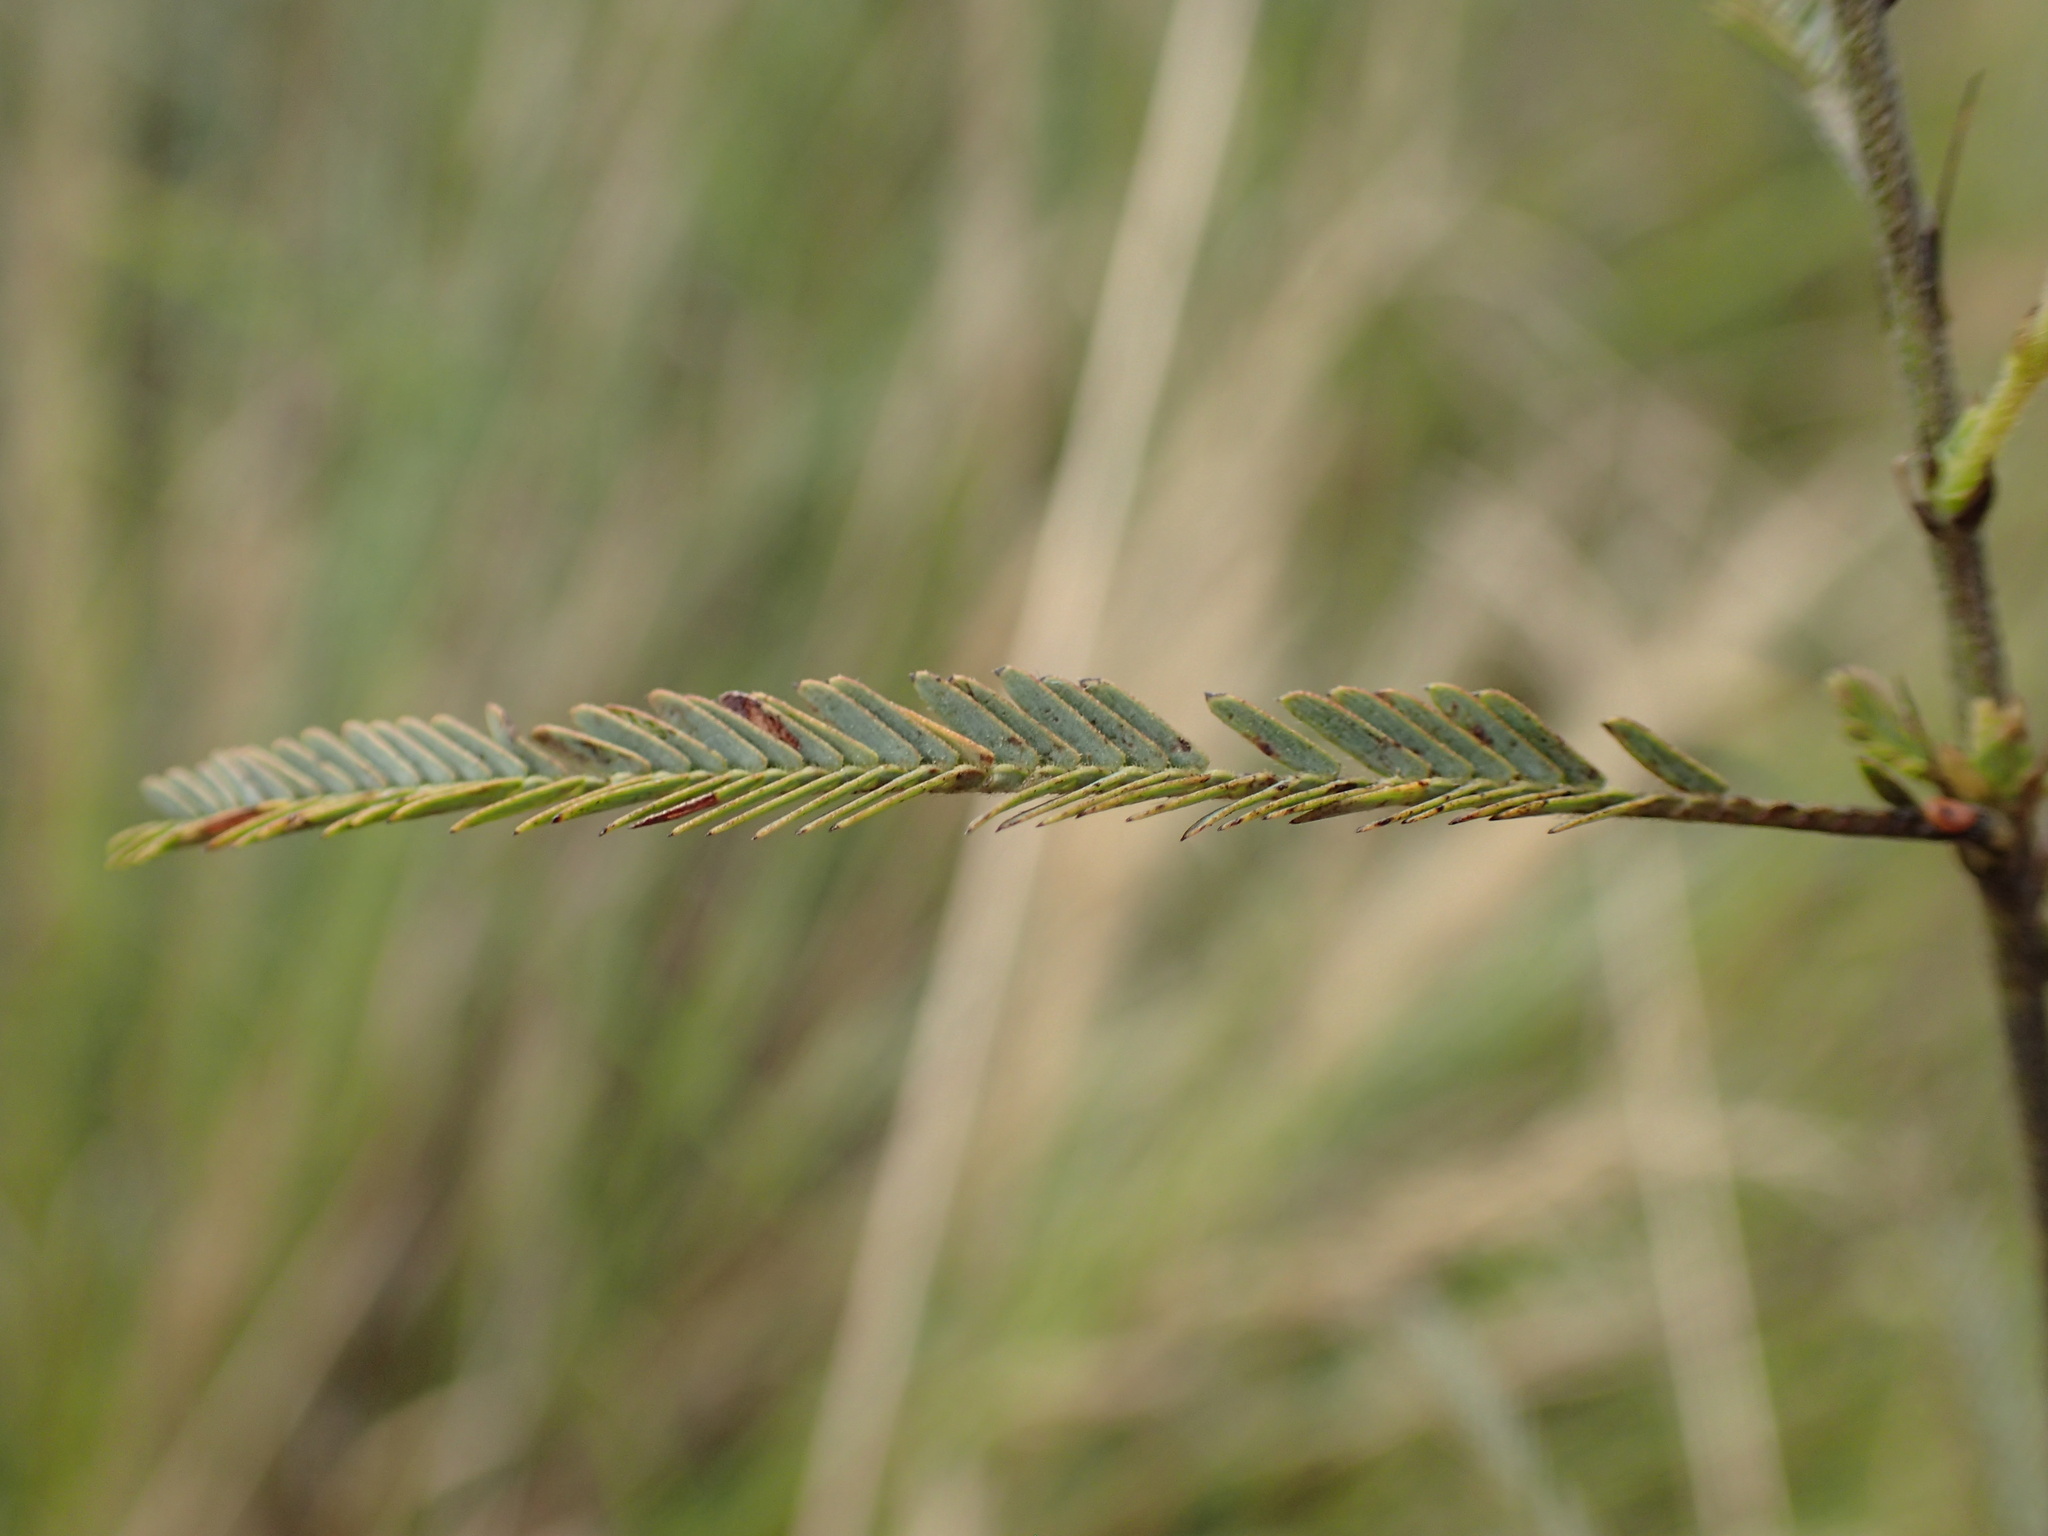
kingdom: Plantae
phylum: Tracheophyta
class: Magnoliopsida
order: Fabales
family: Fabaceae
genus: Chamaecrista
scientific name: Chamaecrista plumosa
